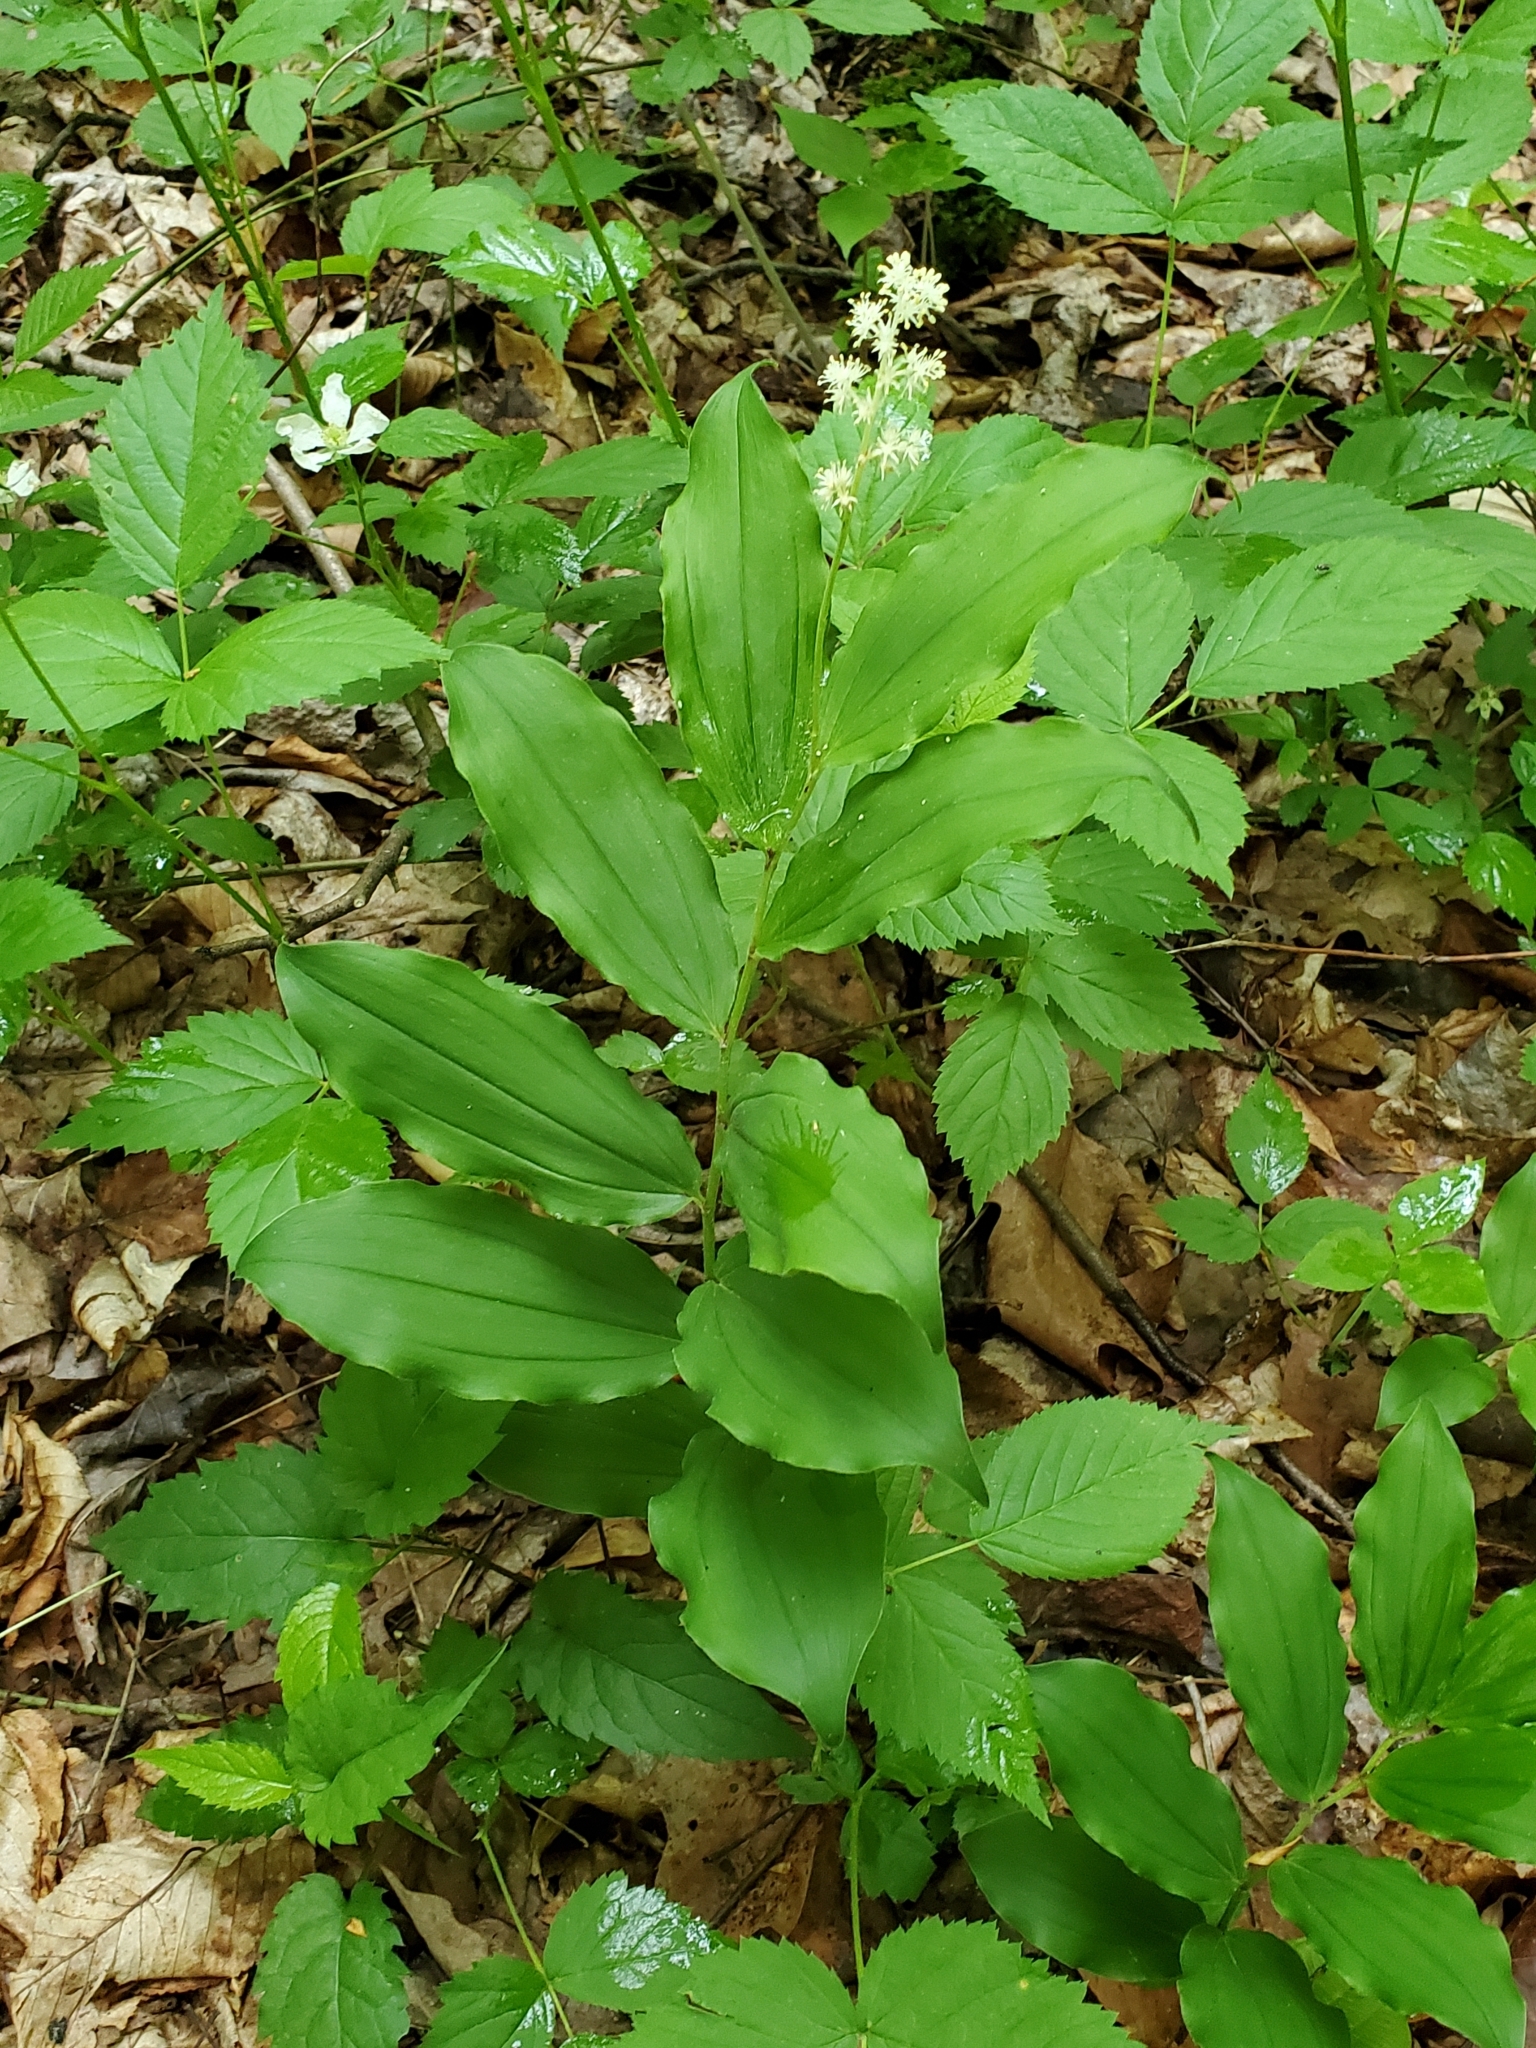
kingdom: Plantae
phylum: Tracheophyta
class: Liliopsida
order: Asparagales
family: Asparagaceae
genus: Maianthemum
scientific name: Maianthemum racemosum
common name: False spikenard
